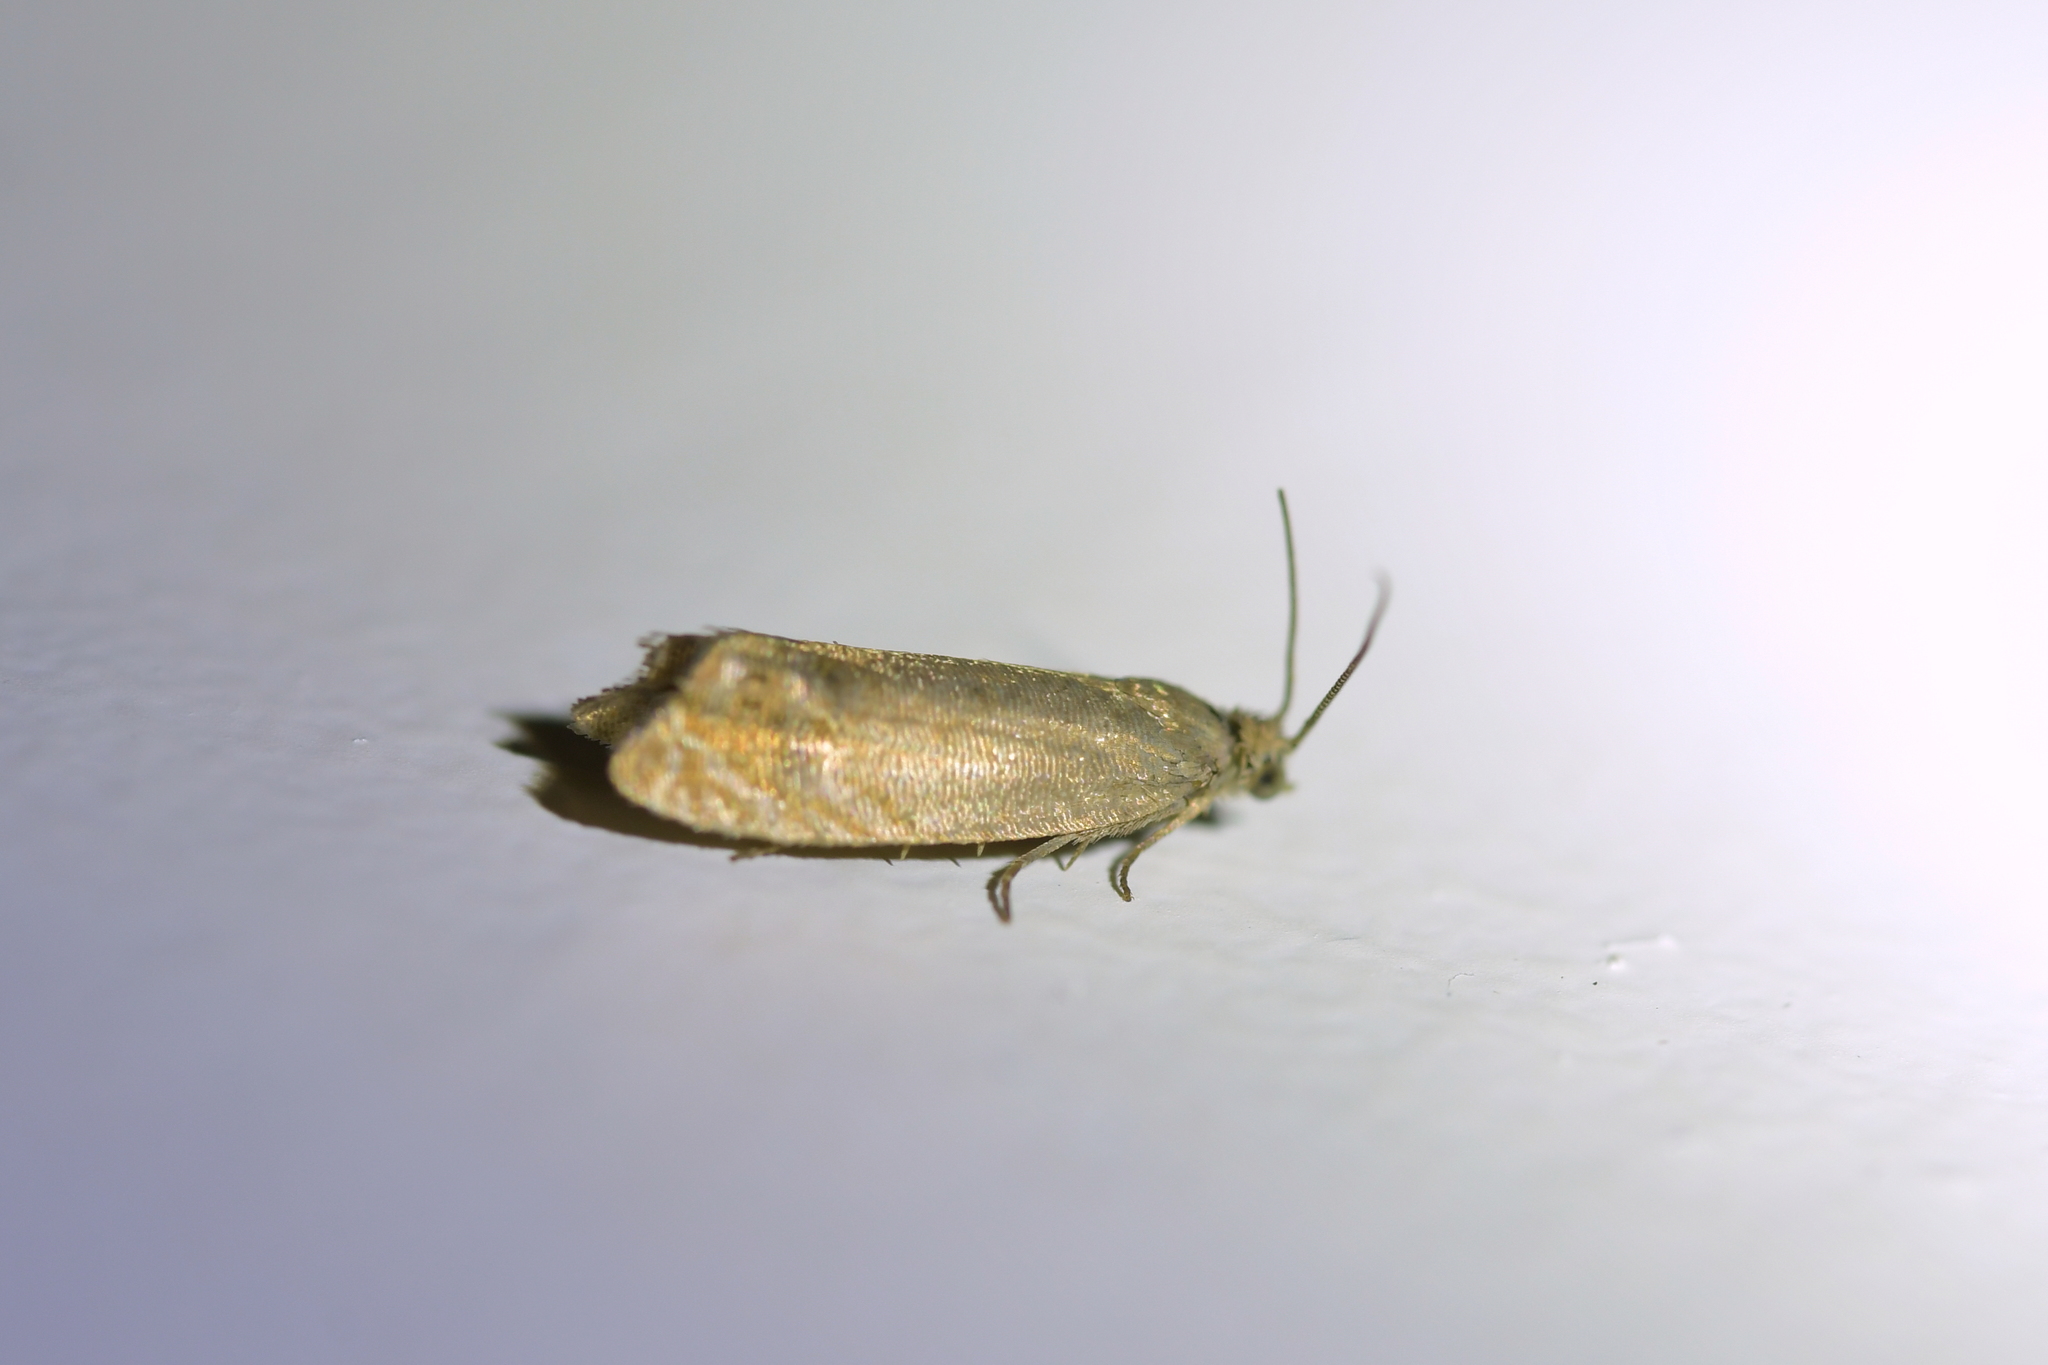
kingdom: Animalia
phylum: Arthropoda
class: Insecta
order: Lepidoptera
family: Tortricidae
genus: Cydia
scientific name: Cydia succedana
